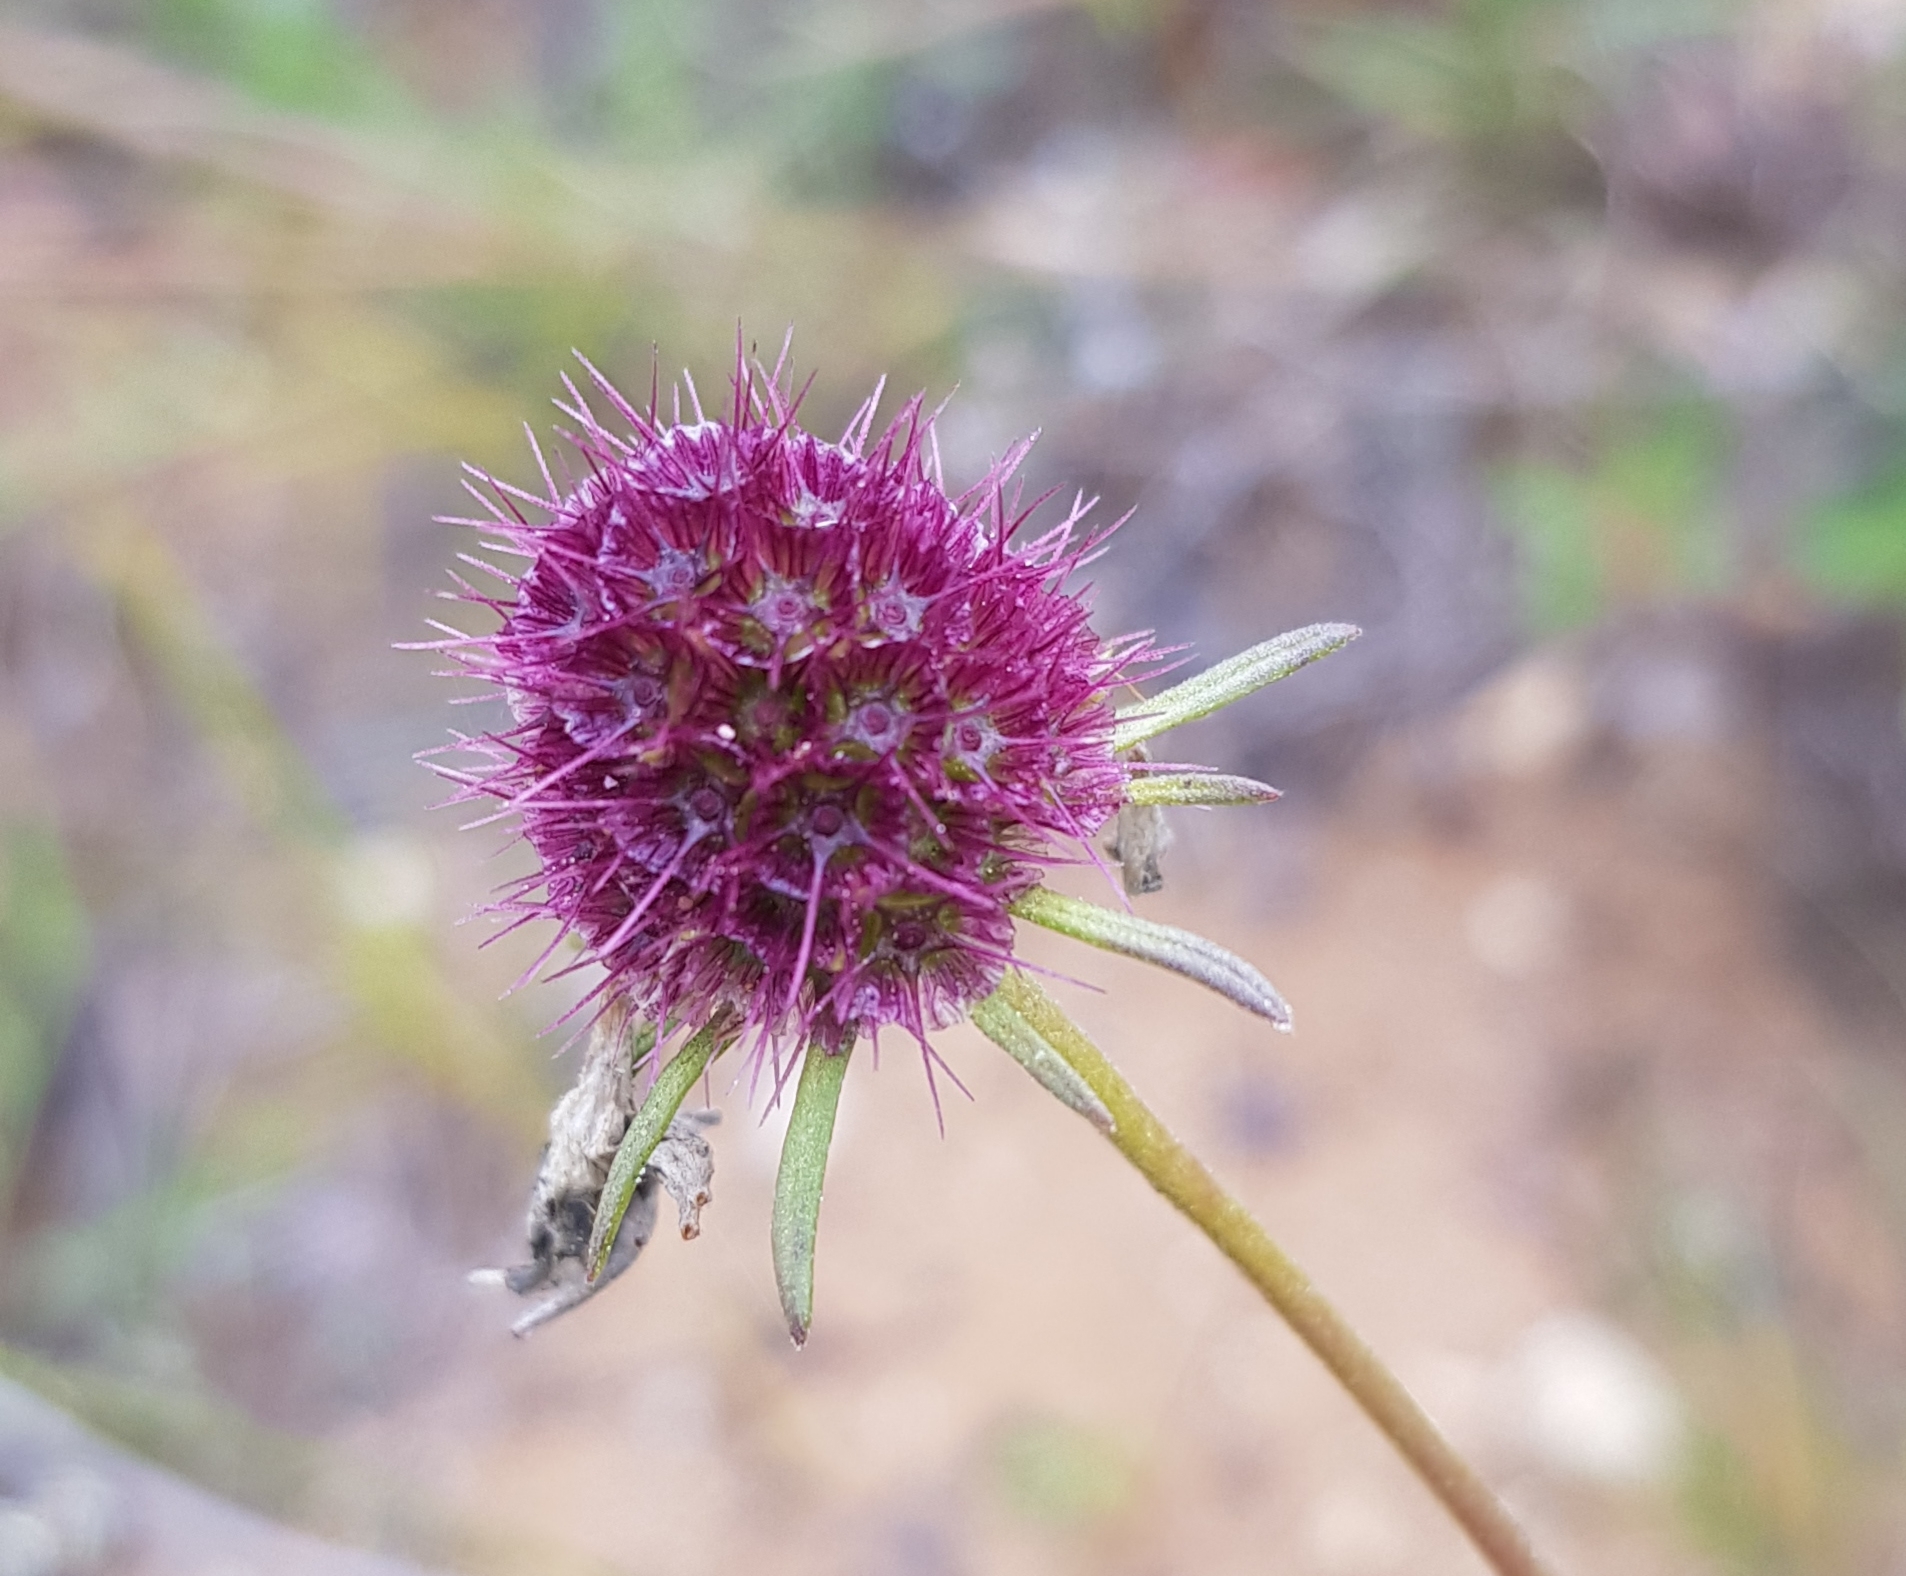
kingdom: Plantae
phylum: Tracheophyta
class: Magnoliopsida
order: Dipsacales
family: Caprifoliaceae
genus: Scabiosa
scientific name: Scabiosa comosa
